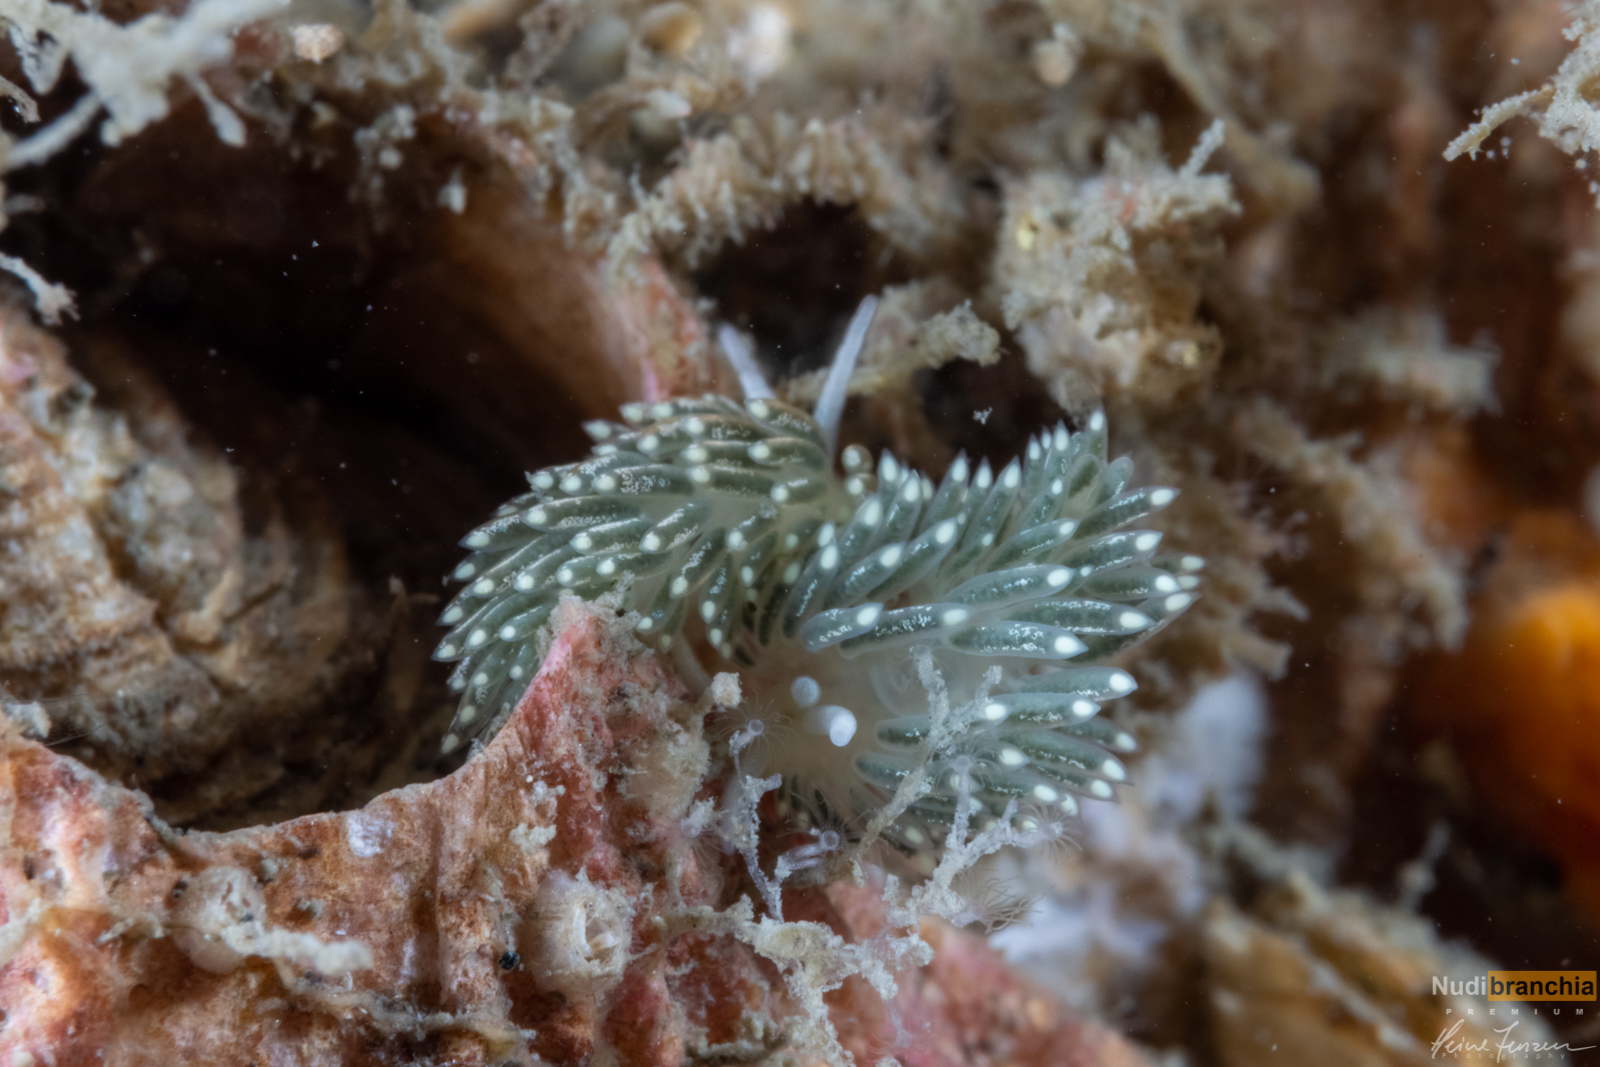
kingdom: Animalia
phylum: Mollusca
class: Gastropoda
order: Nudibranchia
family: Trinchesiidae
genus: Diaphoreolis
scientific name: Diaphoreolis viridis
